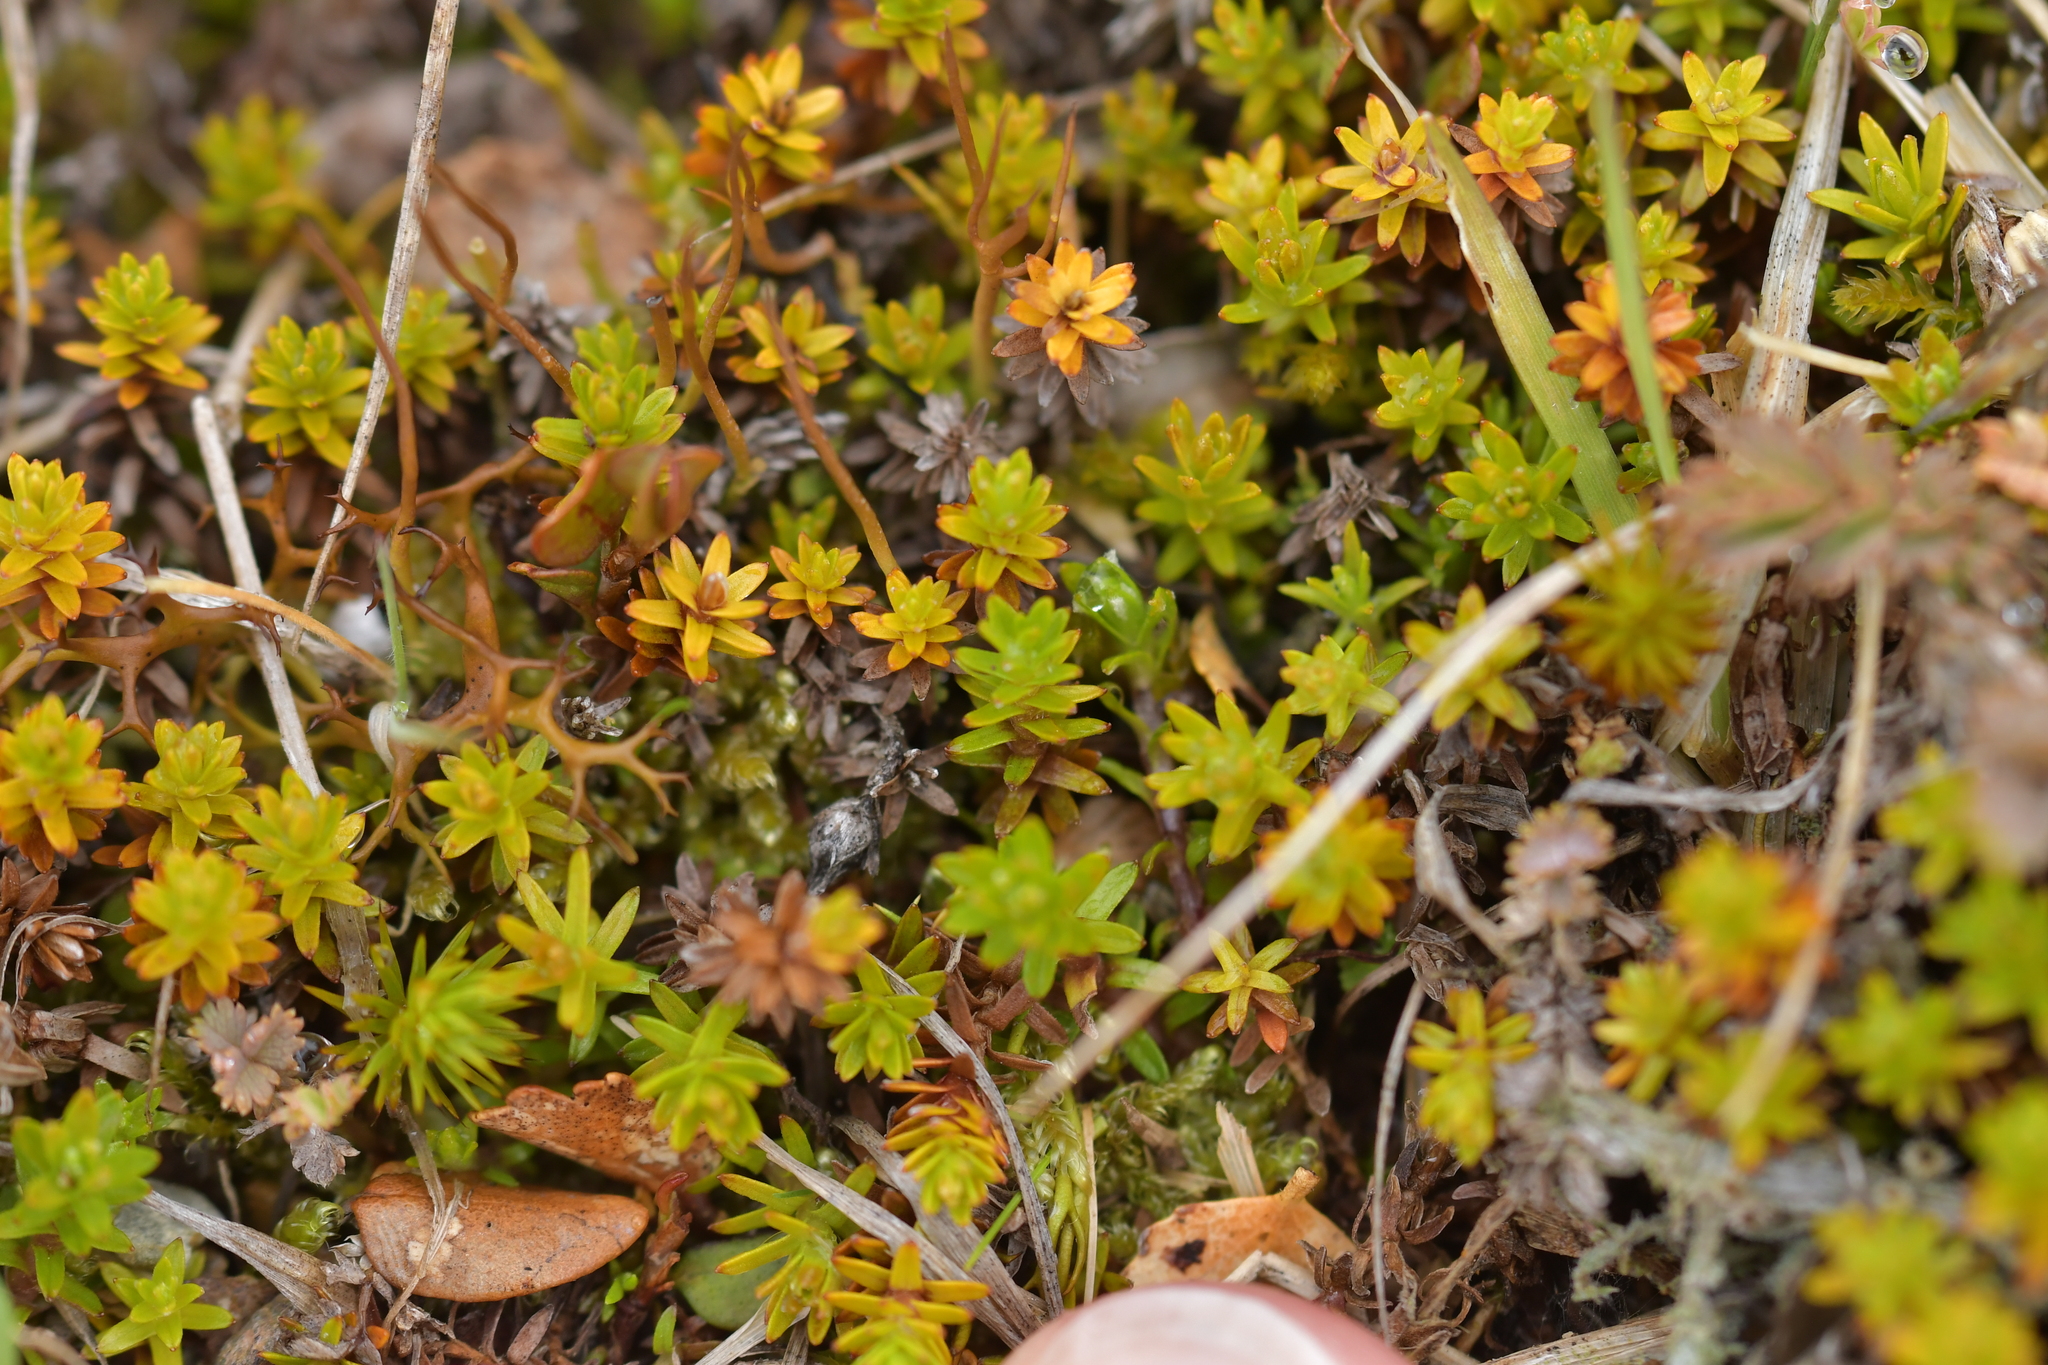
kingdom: Plantae
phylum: Tracheophyta
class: Magnoliopsida
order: Asterales
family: Asteraceae
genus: Raoulia
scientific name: Raoulia glabra
